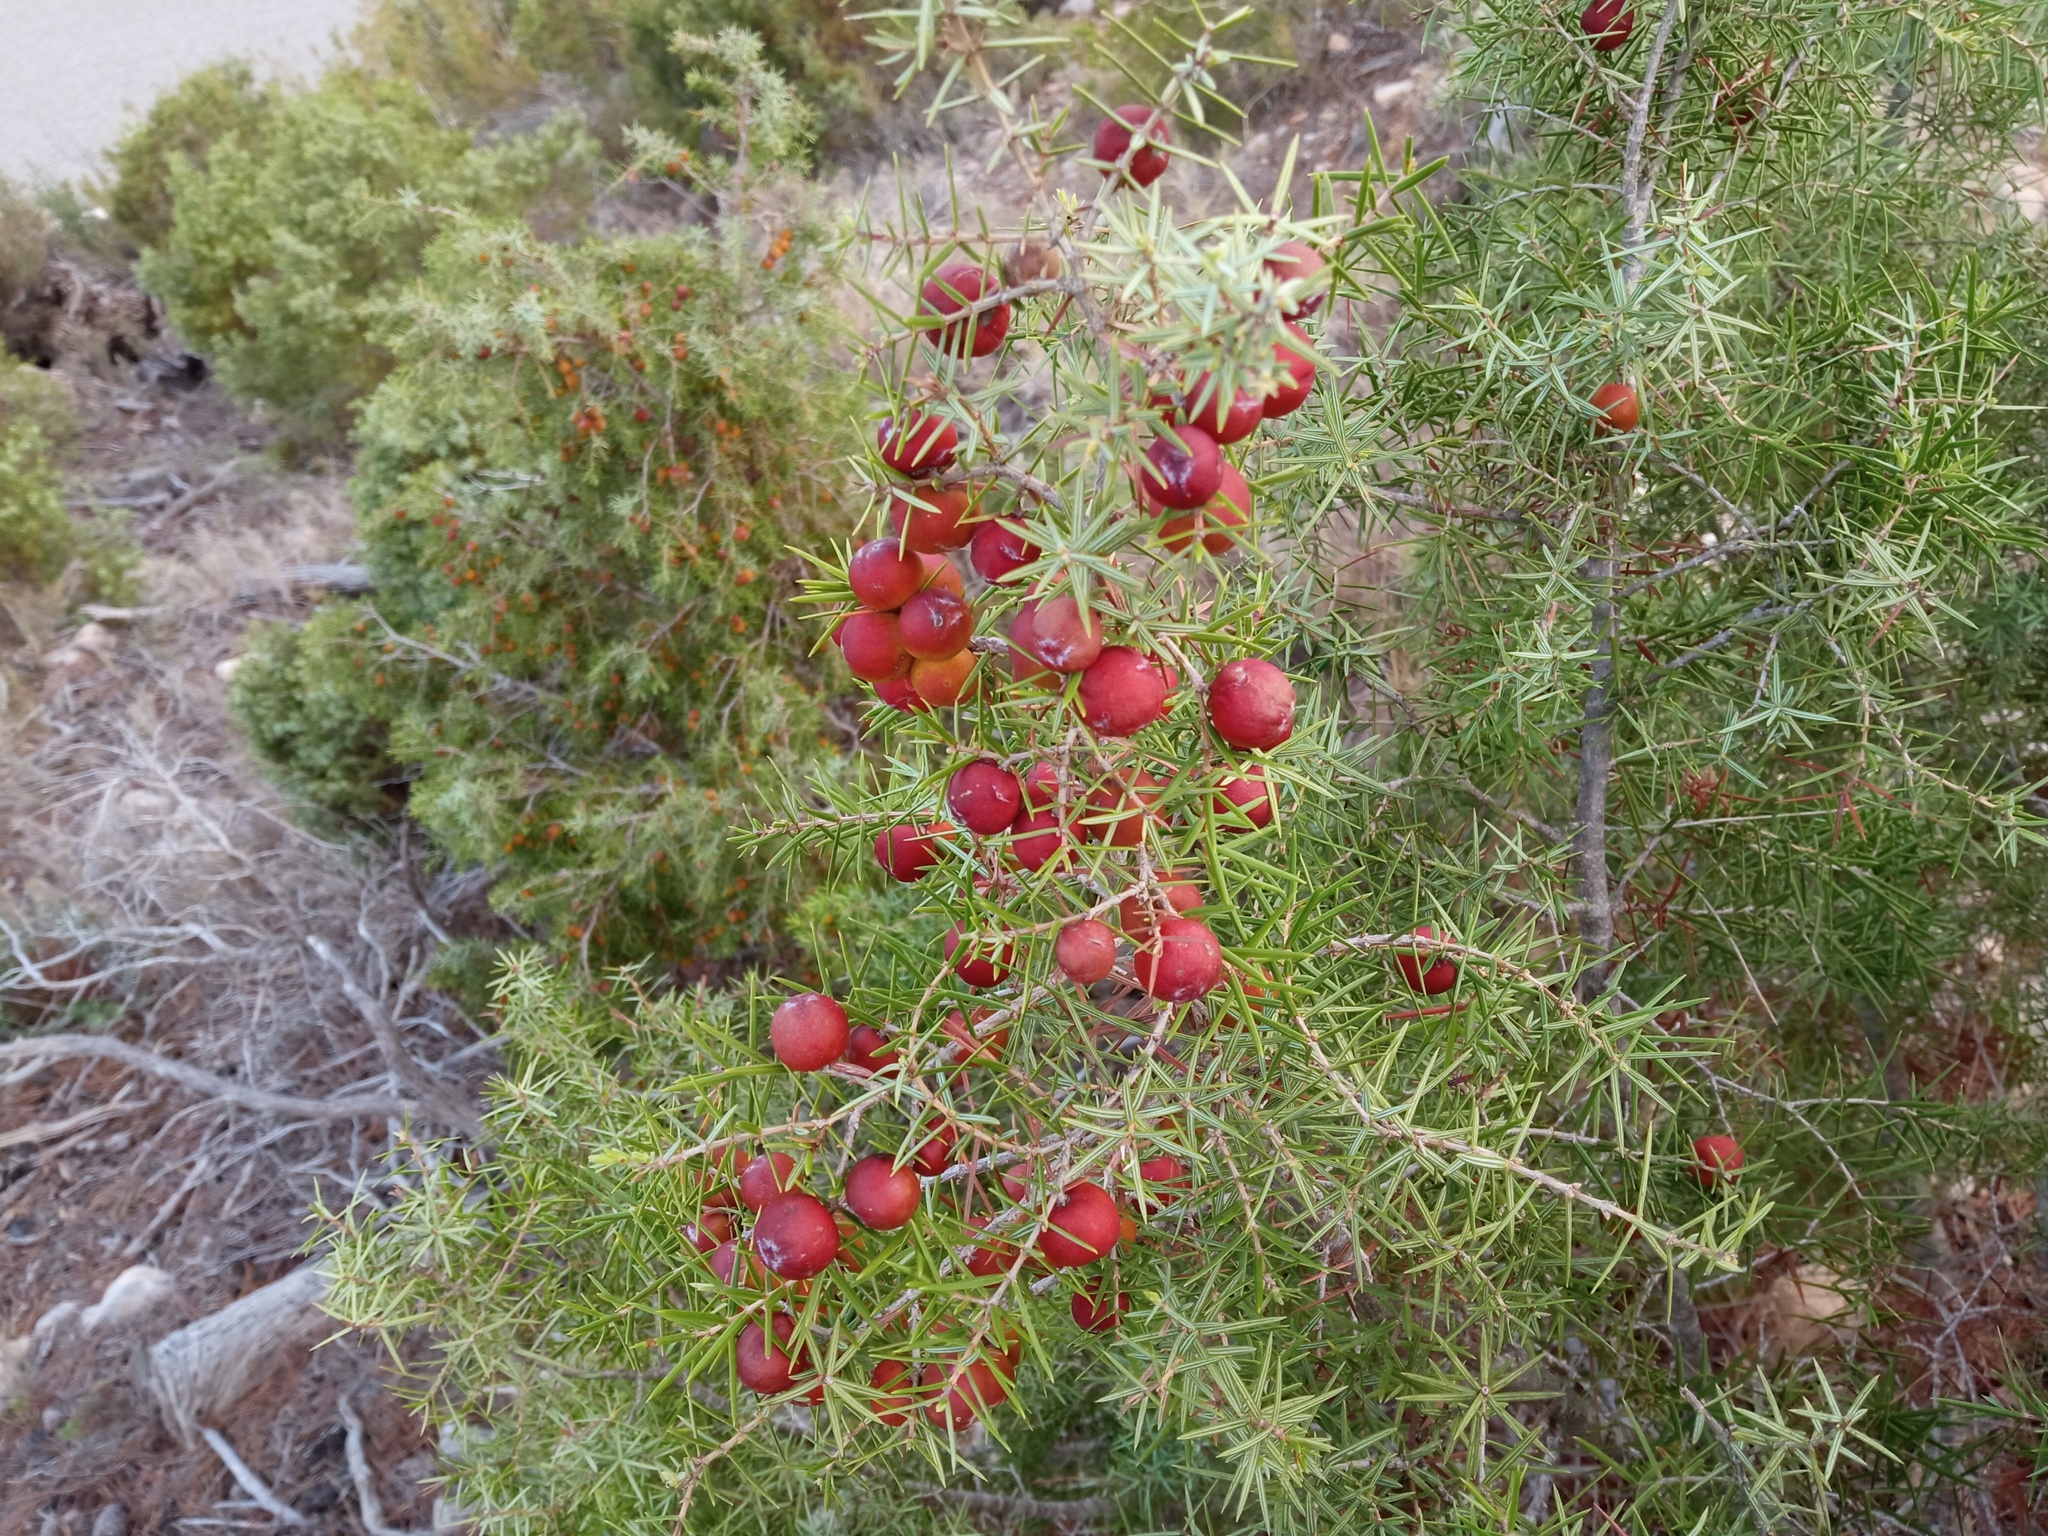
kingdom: Plantae
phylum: Tracheophyta
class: Pinopsida
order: Pinales
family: Cupressaceae
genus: Juniperus
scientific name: Juniperus oxycedrus
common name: Prickly juniper
